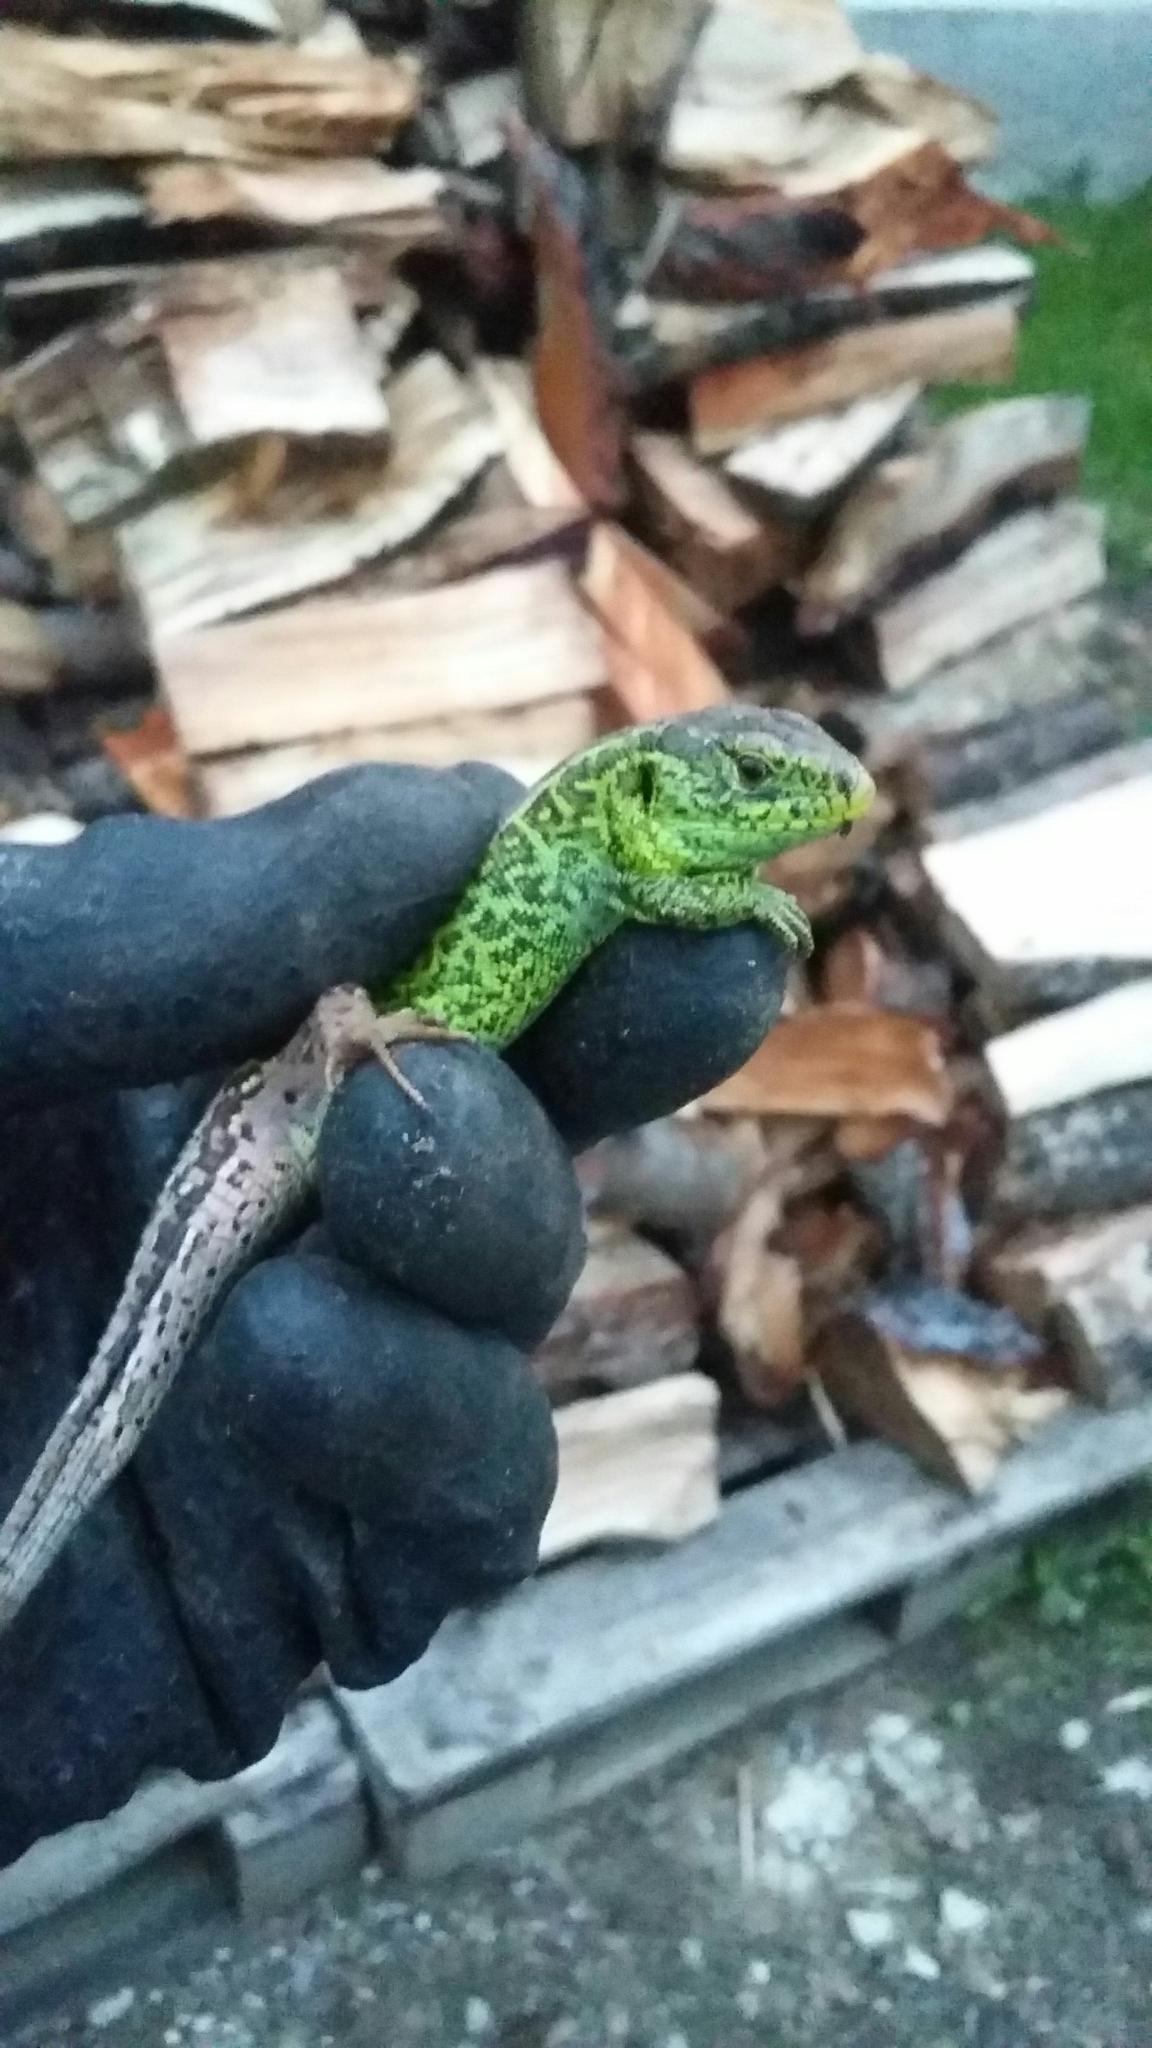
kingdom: Animalia
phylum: Chordata
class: Squamata
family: Lacertidae
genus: Lacerta
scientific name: Lacerta agilis
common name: Sand lizard
